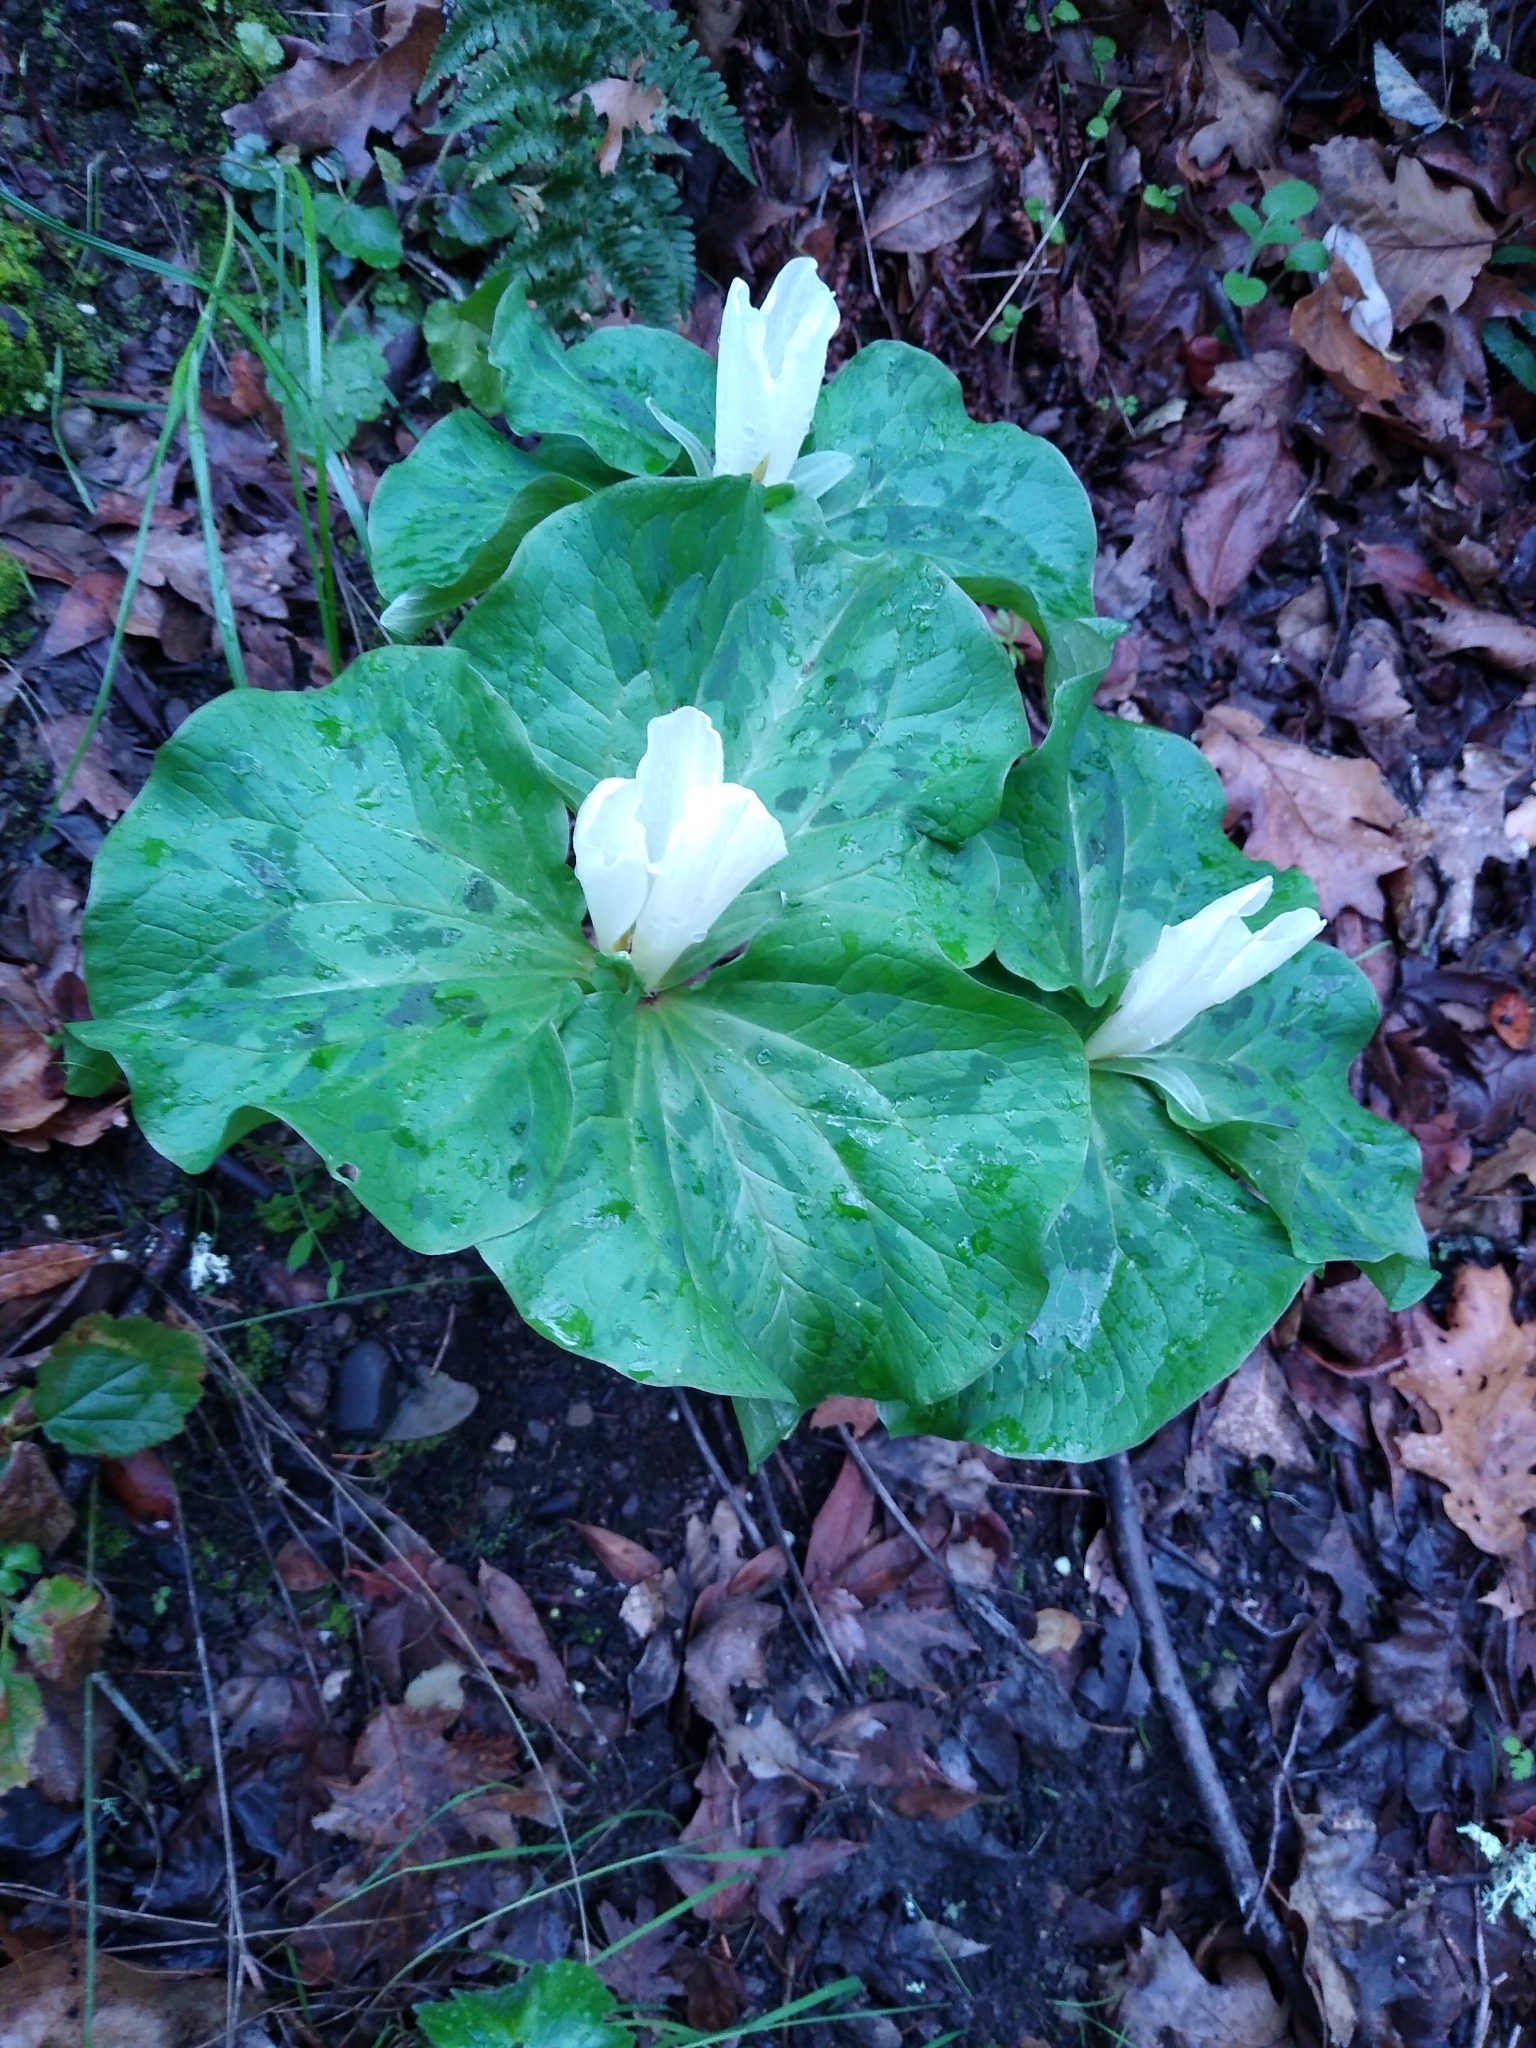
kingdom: Plantae
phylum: Tracheophyta
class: Liliopsida
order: Liliales
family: Melanthiaceae
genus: Trillium
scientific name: Trillium albidum
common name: Freeman's trillium
